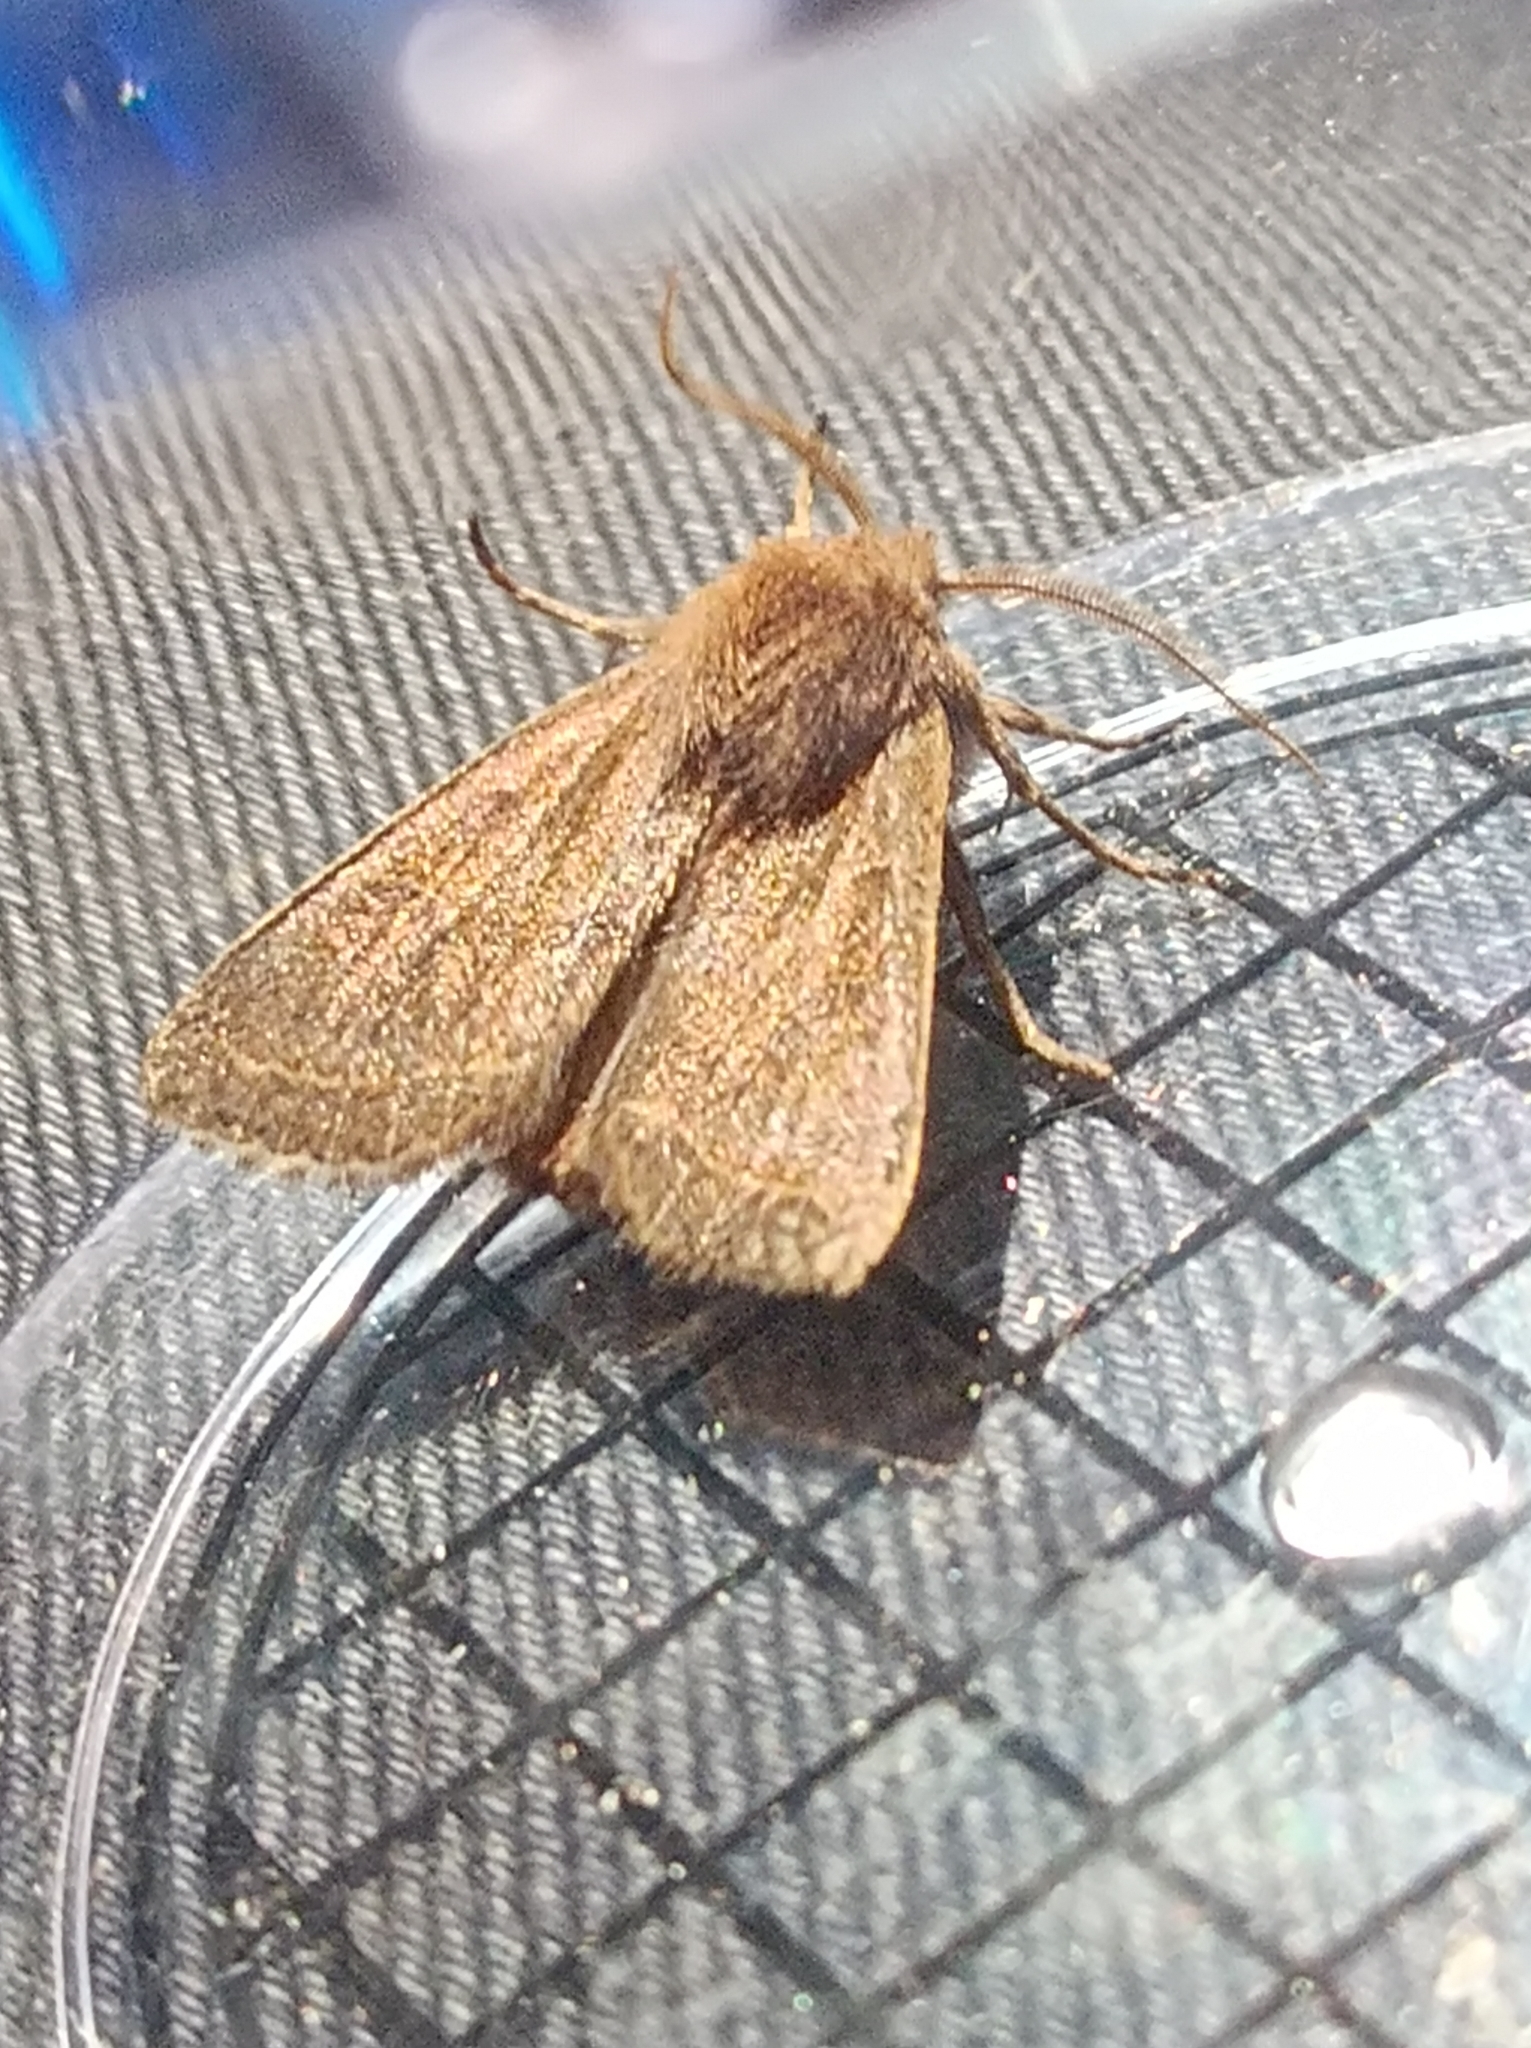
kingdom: Animalia
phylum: Arthropoda
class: Insecta
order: Lepidoptera
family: Noctuidae
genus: Orthosia
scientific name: Orthosia cerasi
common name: Common quaker
